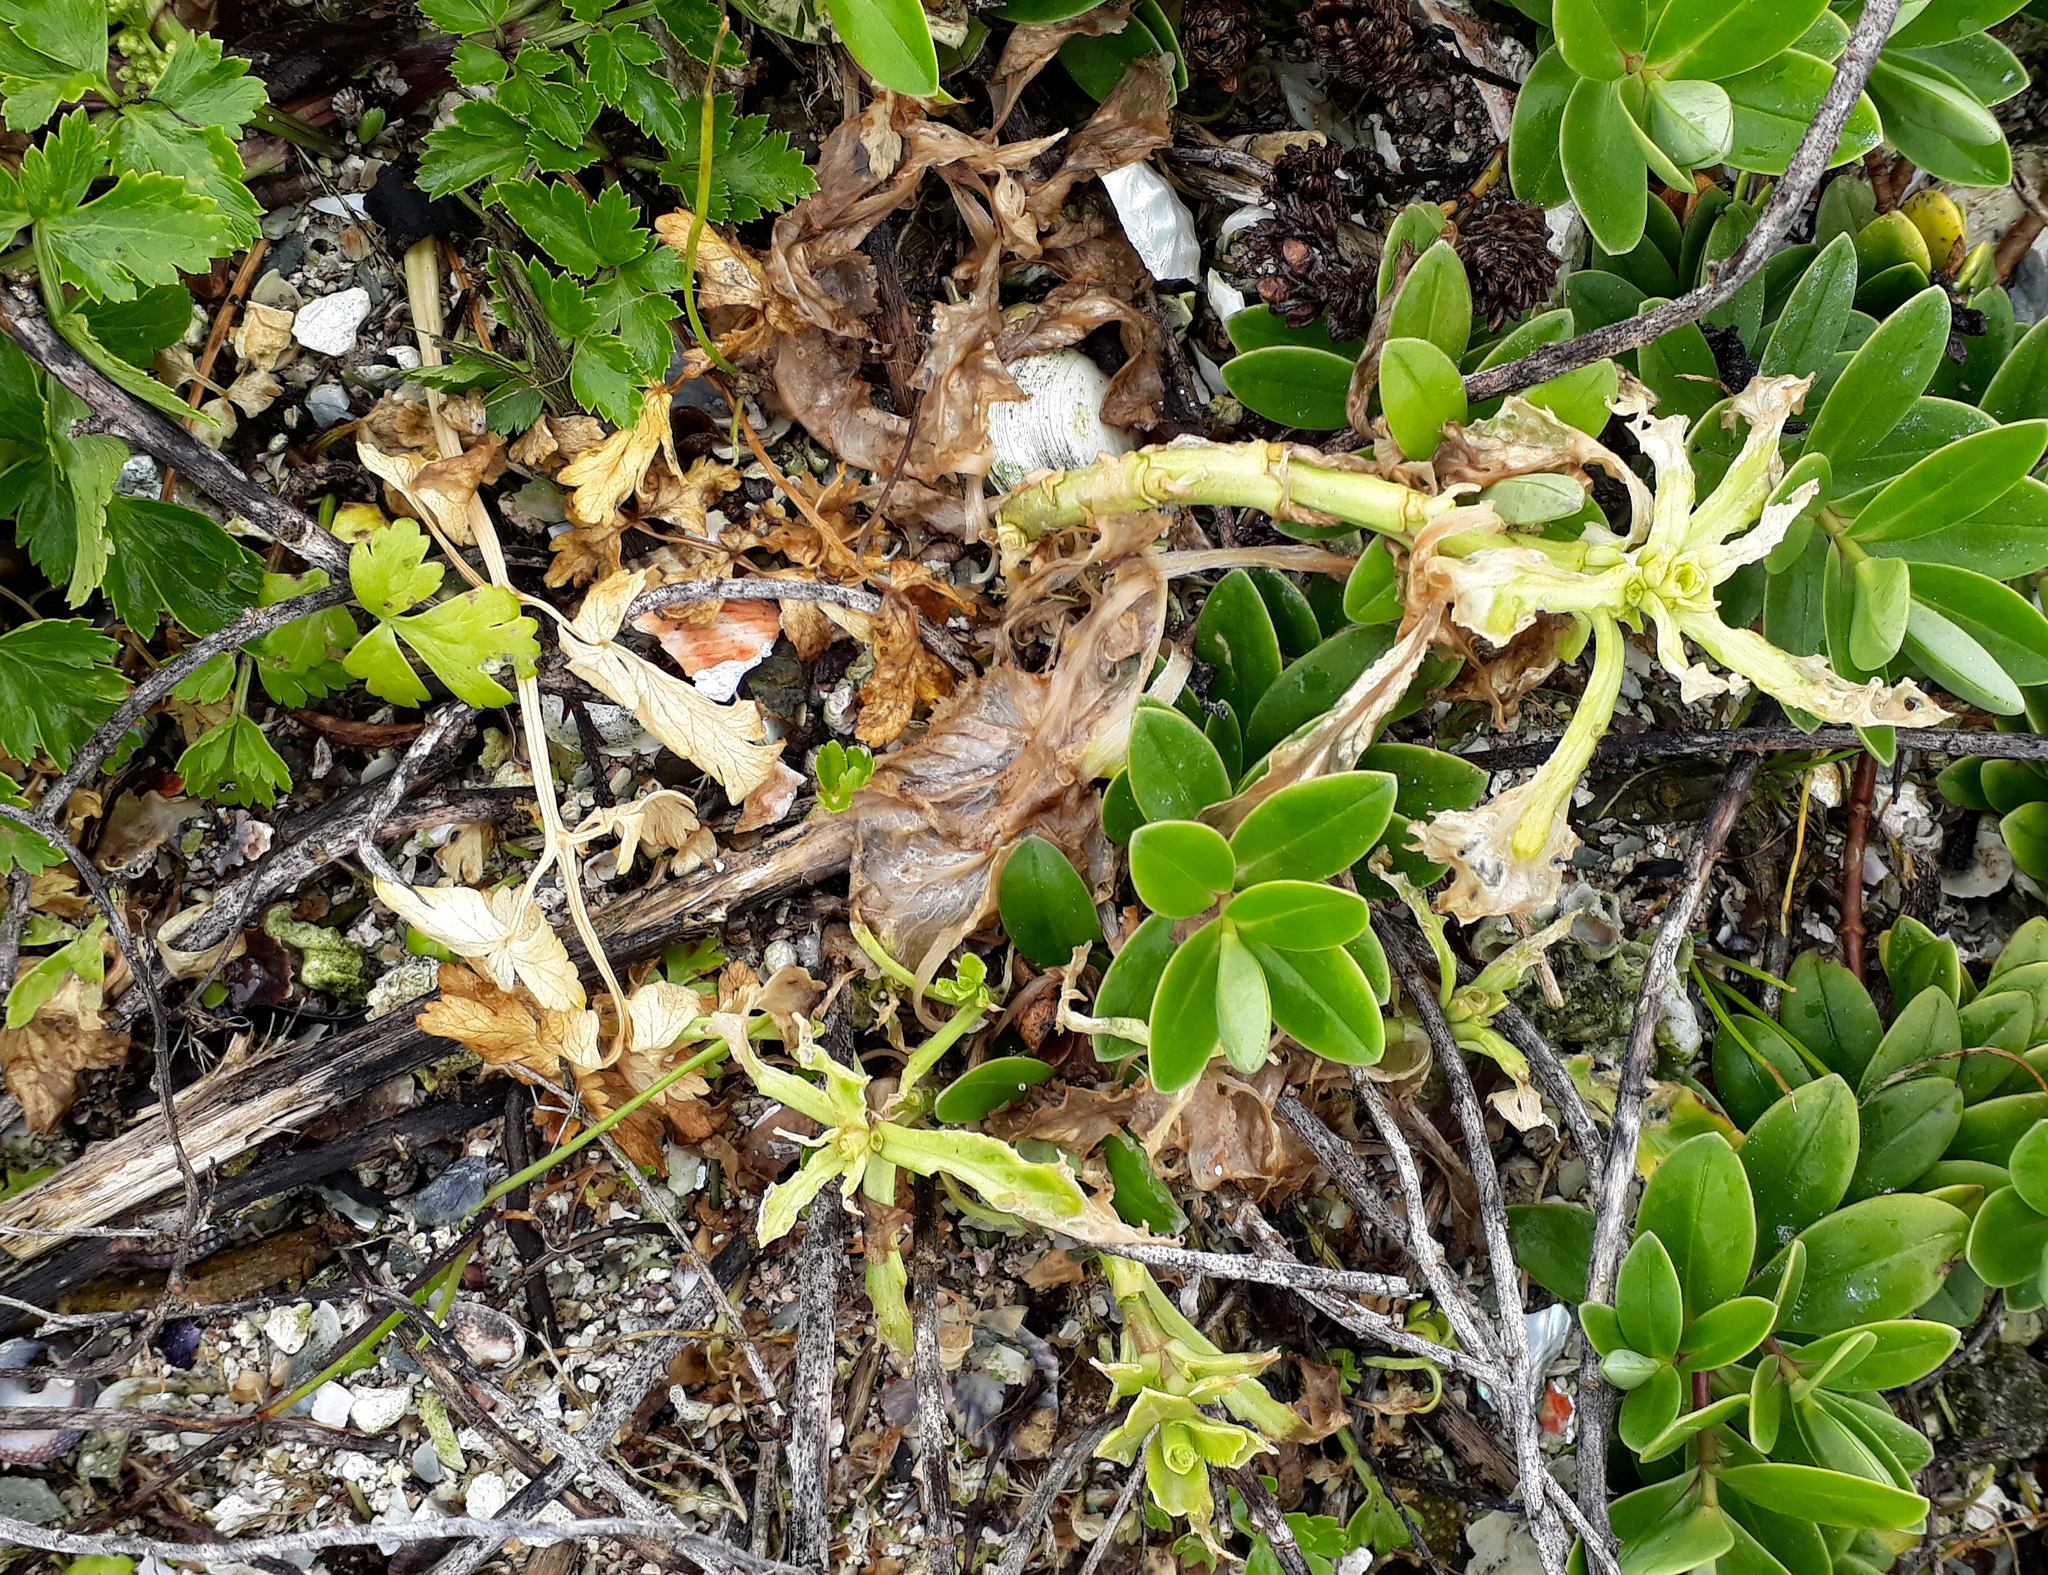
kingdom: Plantae
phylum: Tracheophyta
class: Magnoliopsida
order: Brassicales
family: Brassicaceae
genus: Lepidium
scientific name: Lepidium rekohuense
